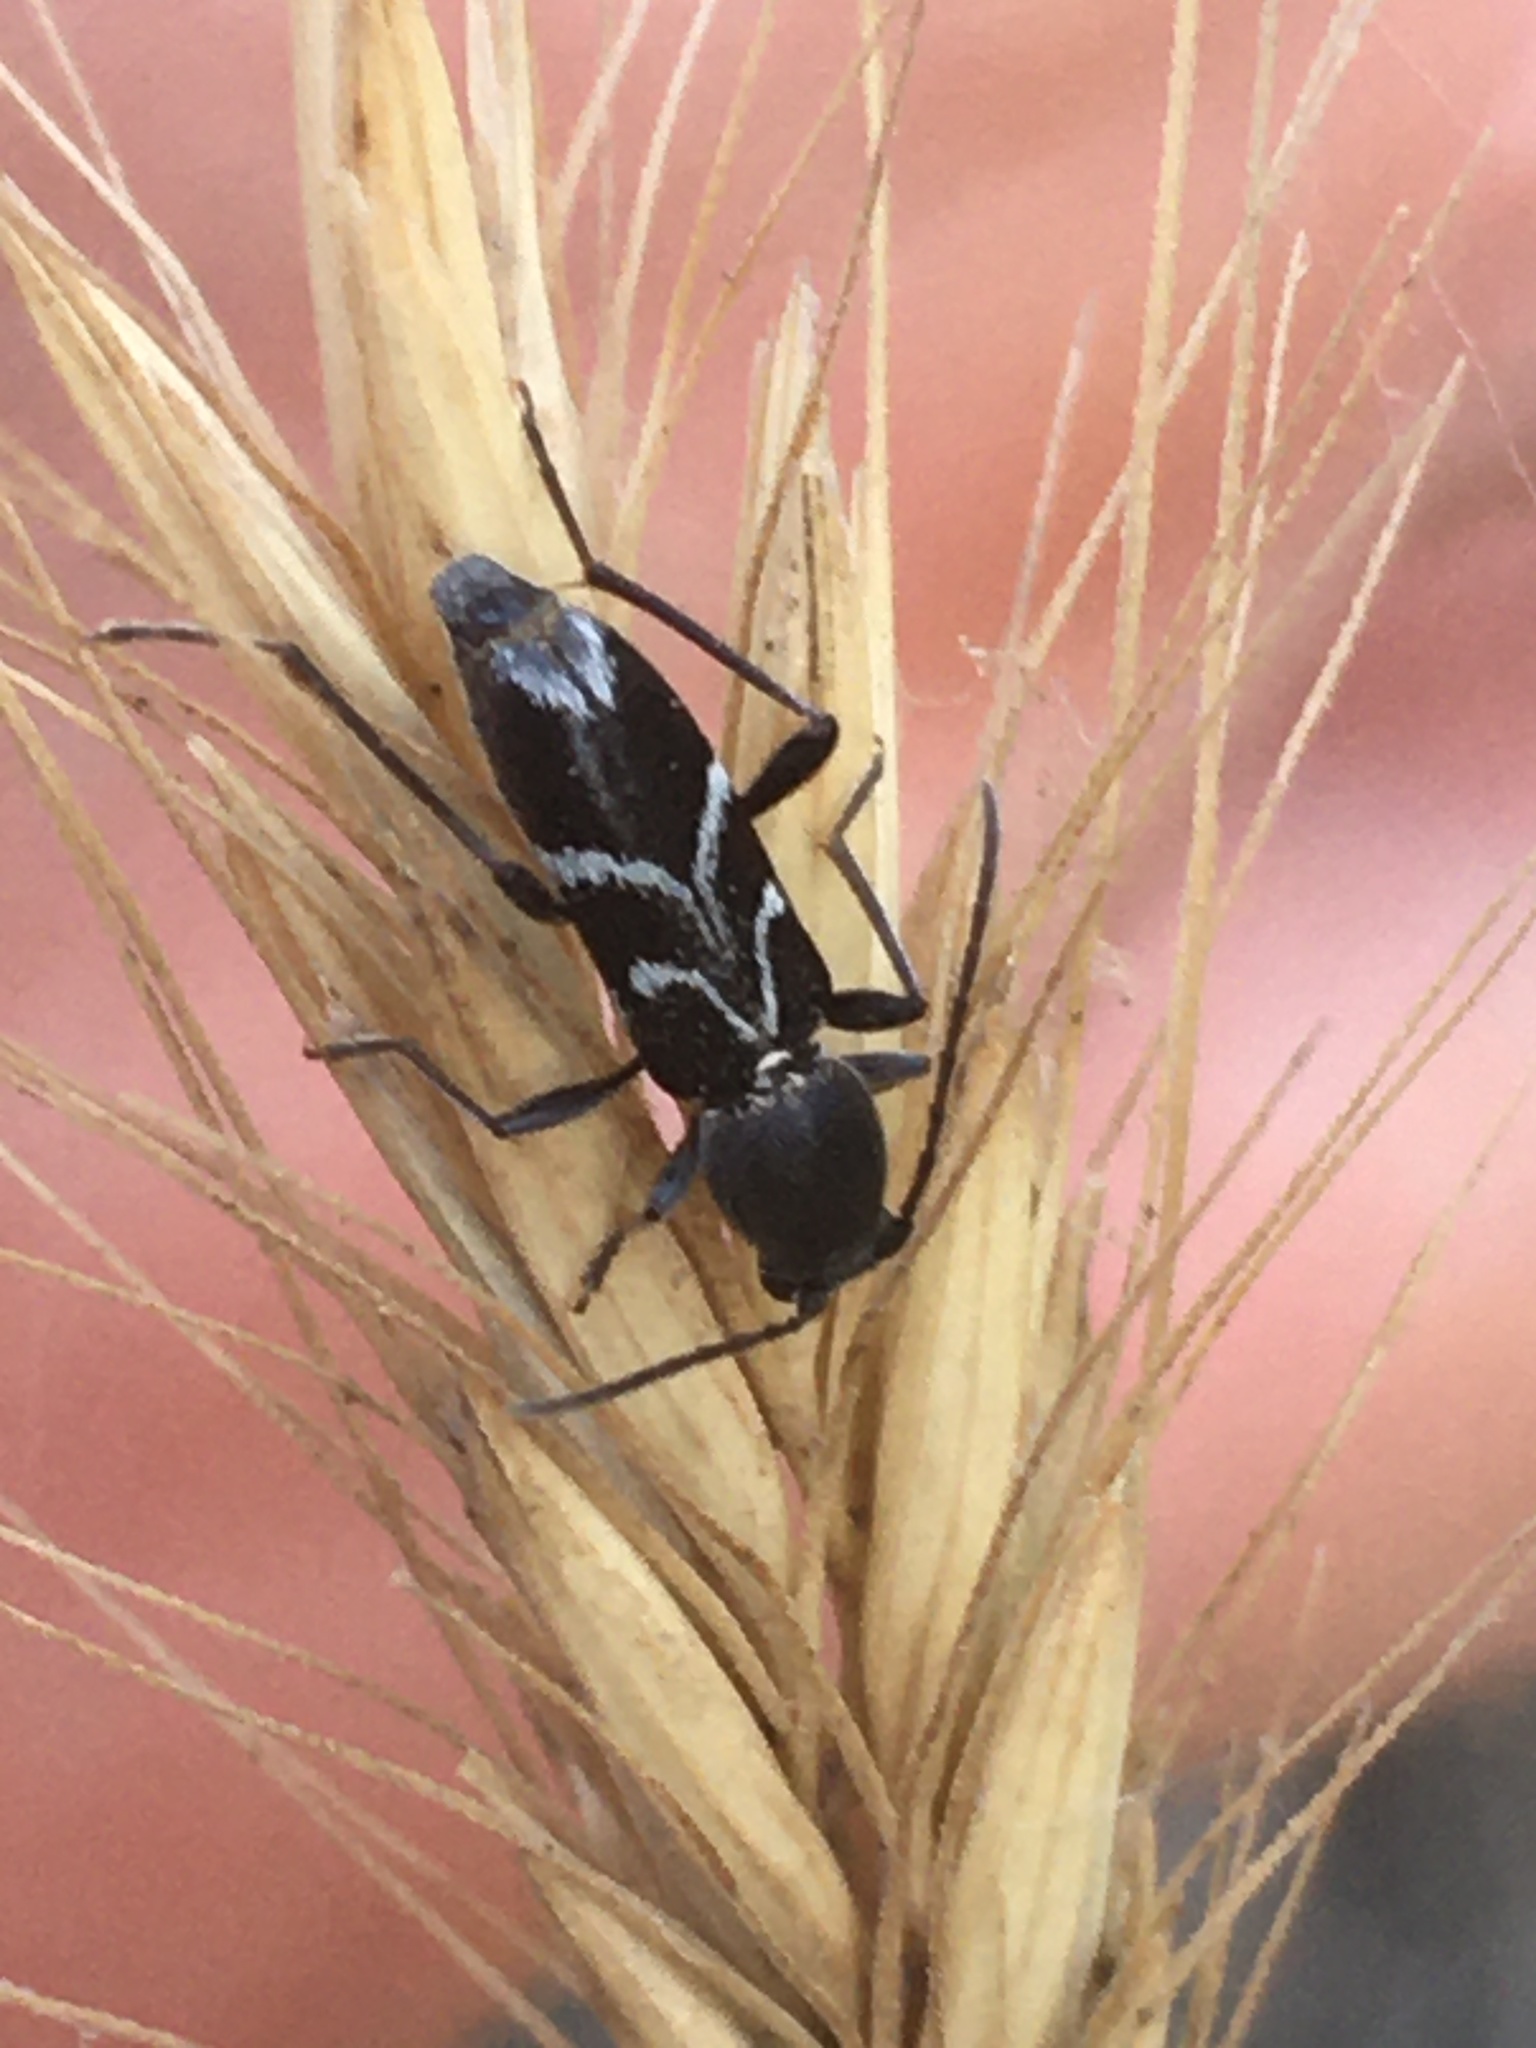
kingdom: Animalia
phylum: Arthropoda
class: Insecta
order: Coleoptera
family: Cerambycidae
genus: Chlorophorus
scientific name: Chlorophorus sartor
